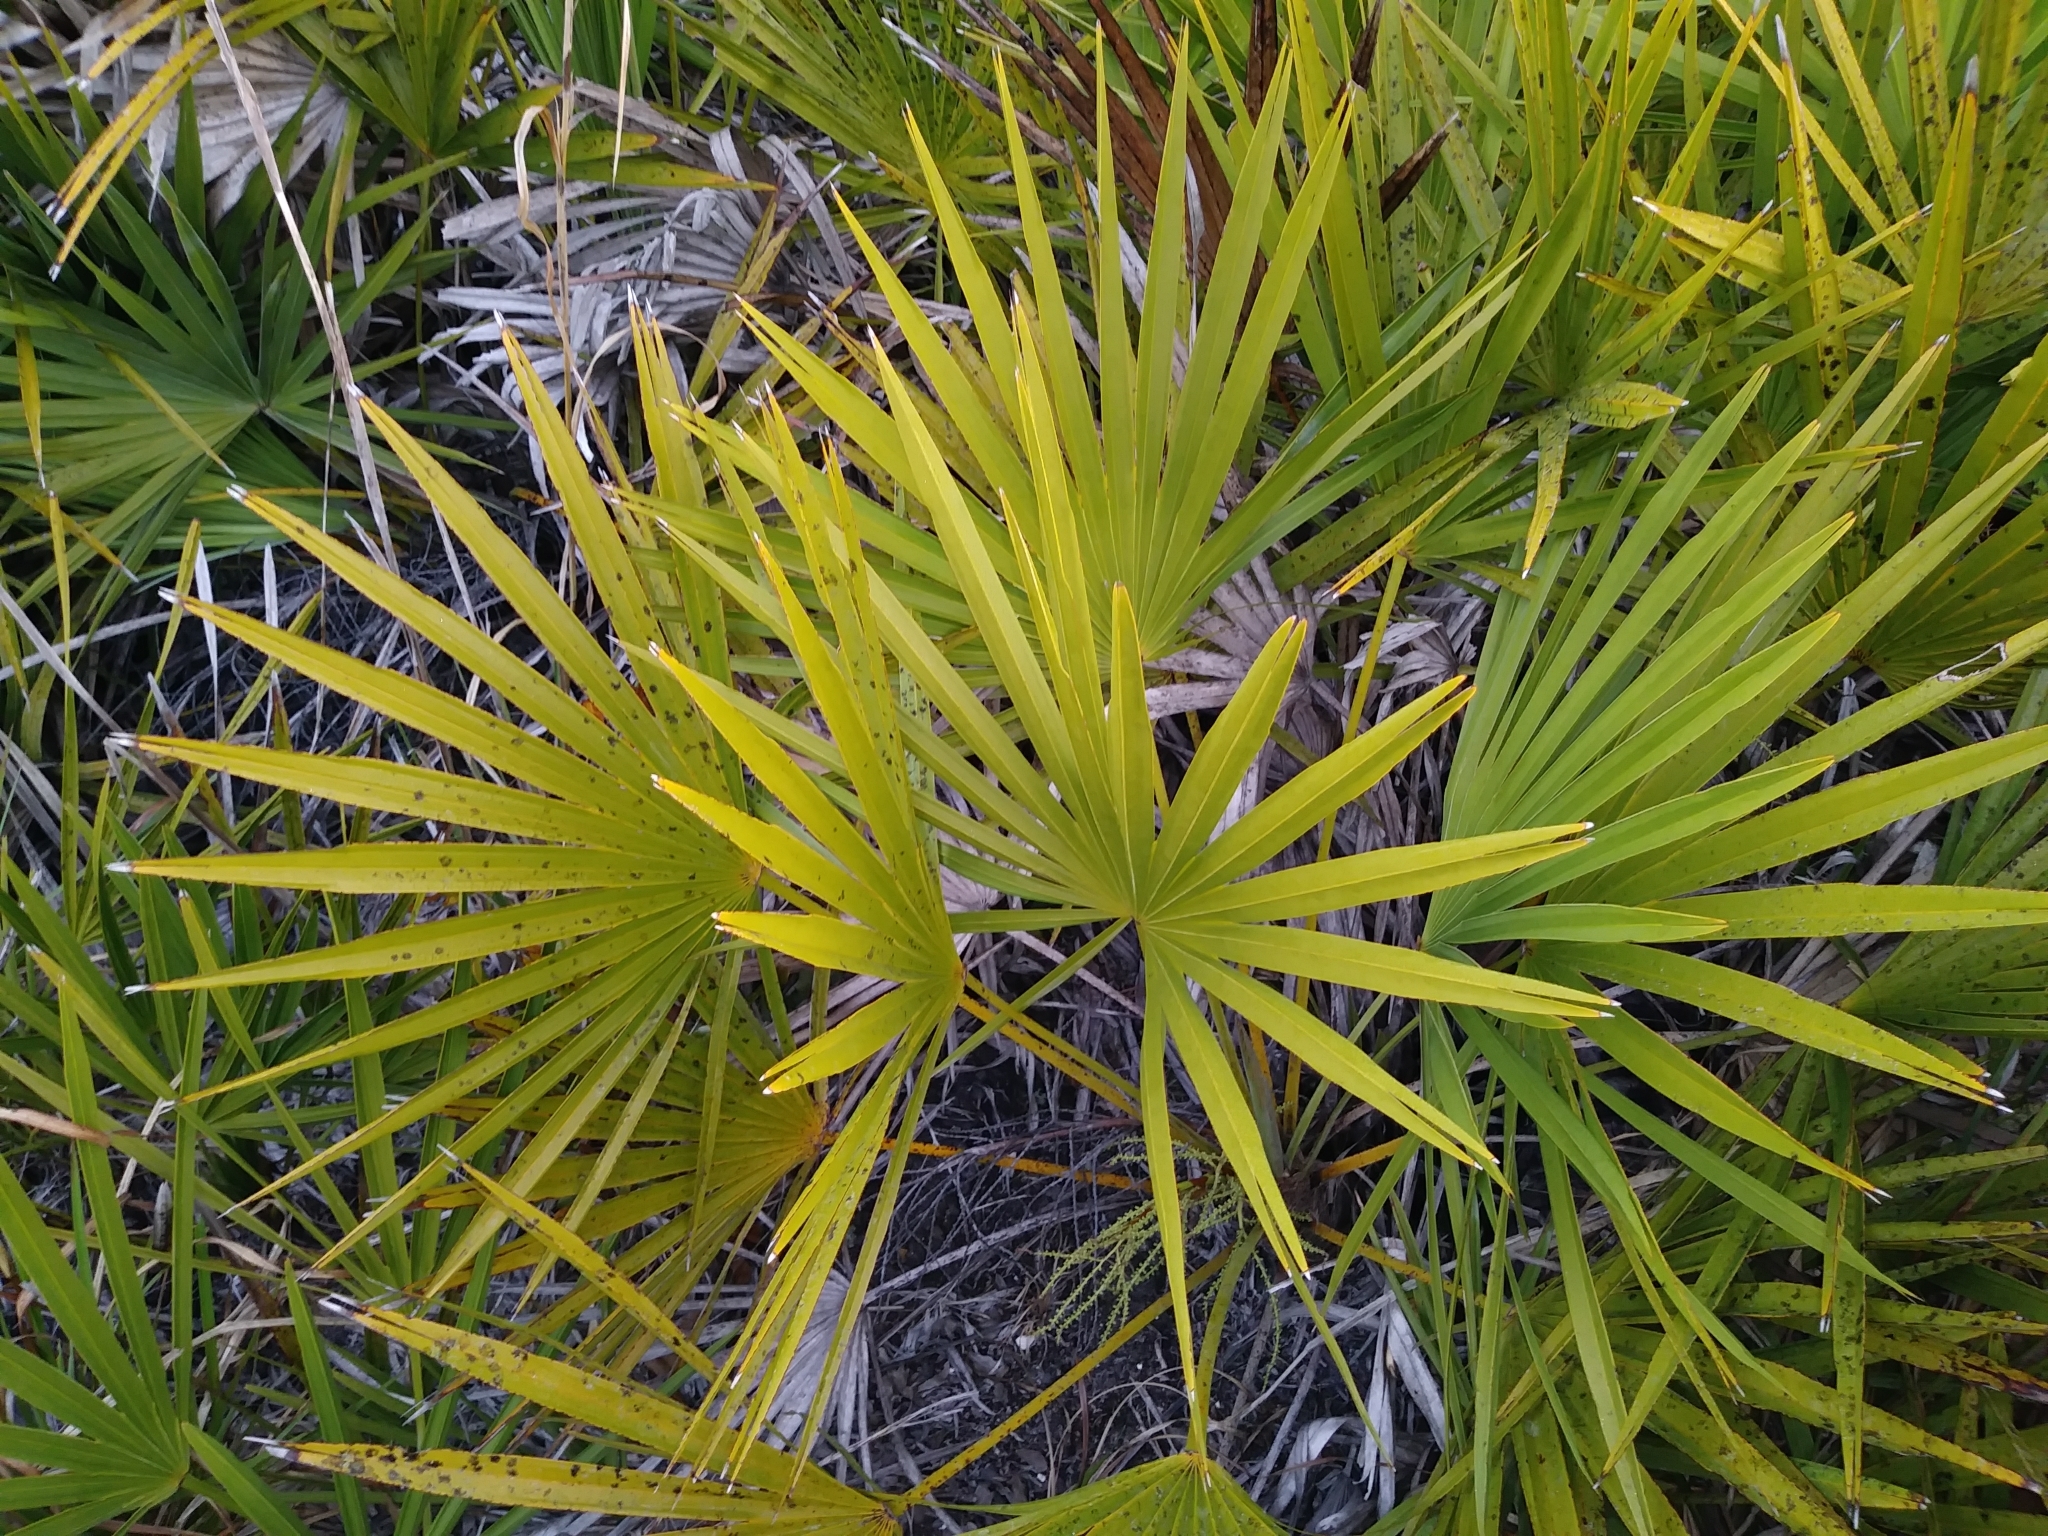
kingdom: Plantae
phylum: Tracheophyta
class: Liliopsida
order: Arecales
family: Arecaceae
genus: Serenoa
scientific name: Serenoa repens
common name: Saw-palmetto
